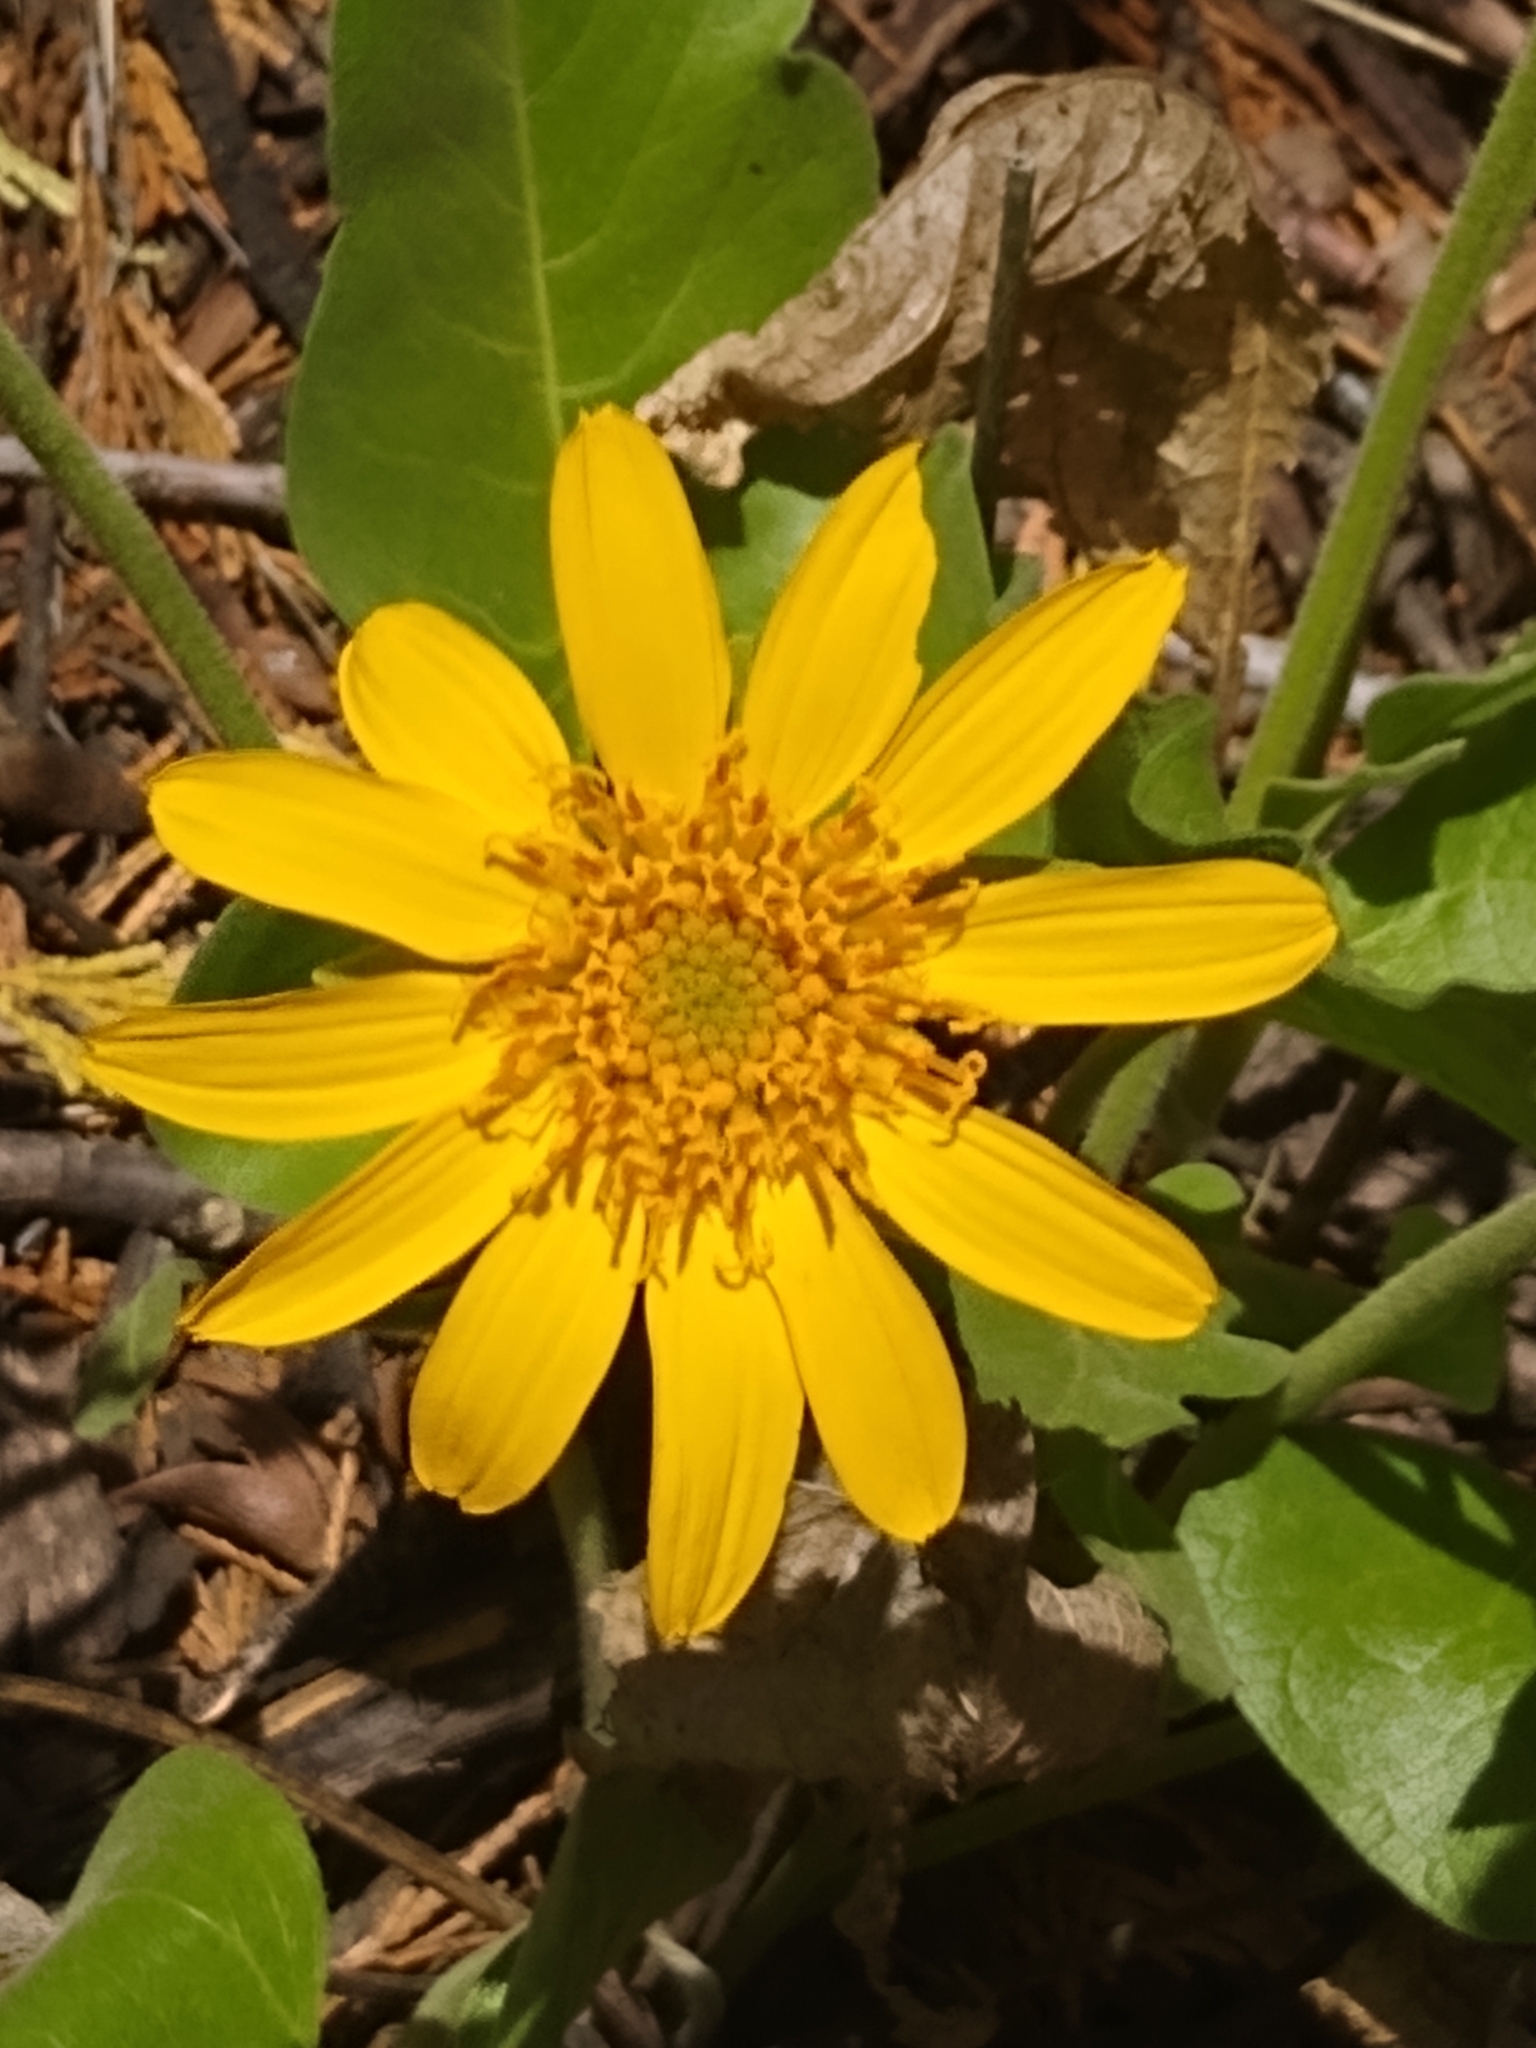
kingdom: Plantae
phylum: Tracheophyta
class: Magnoliopsida
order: Asterales
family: Asteraceae
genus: Balsamorhiza
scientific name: Balsamorhiza deltoidea
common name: Deltoid balsamroot
